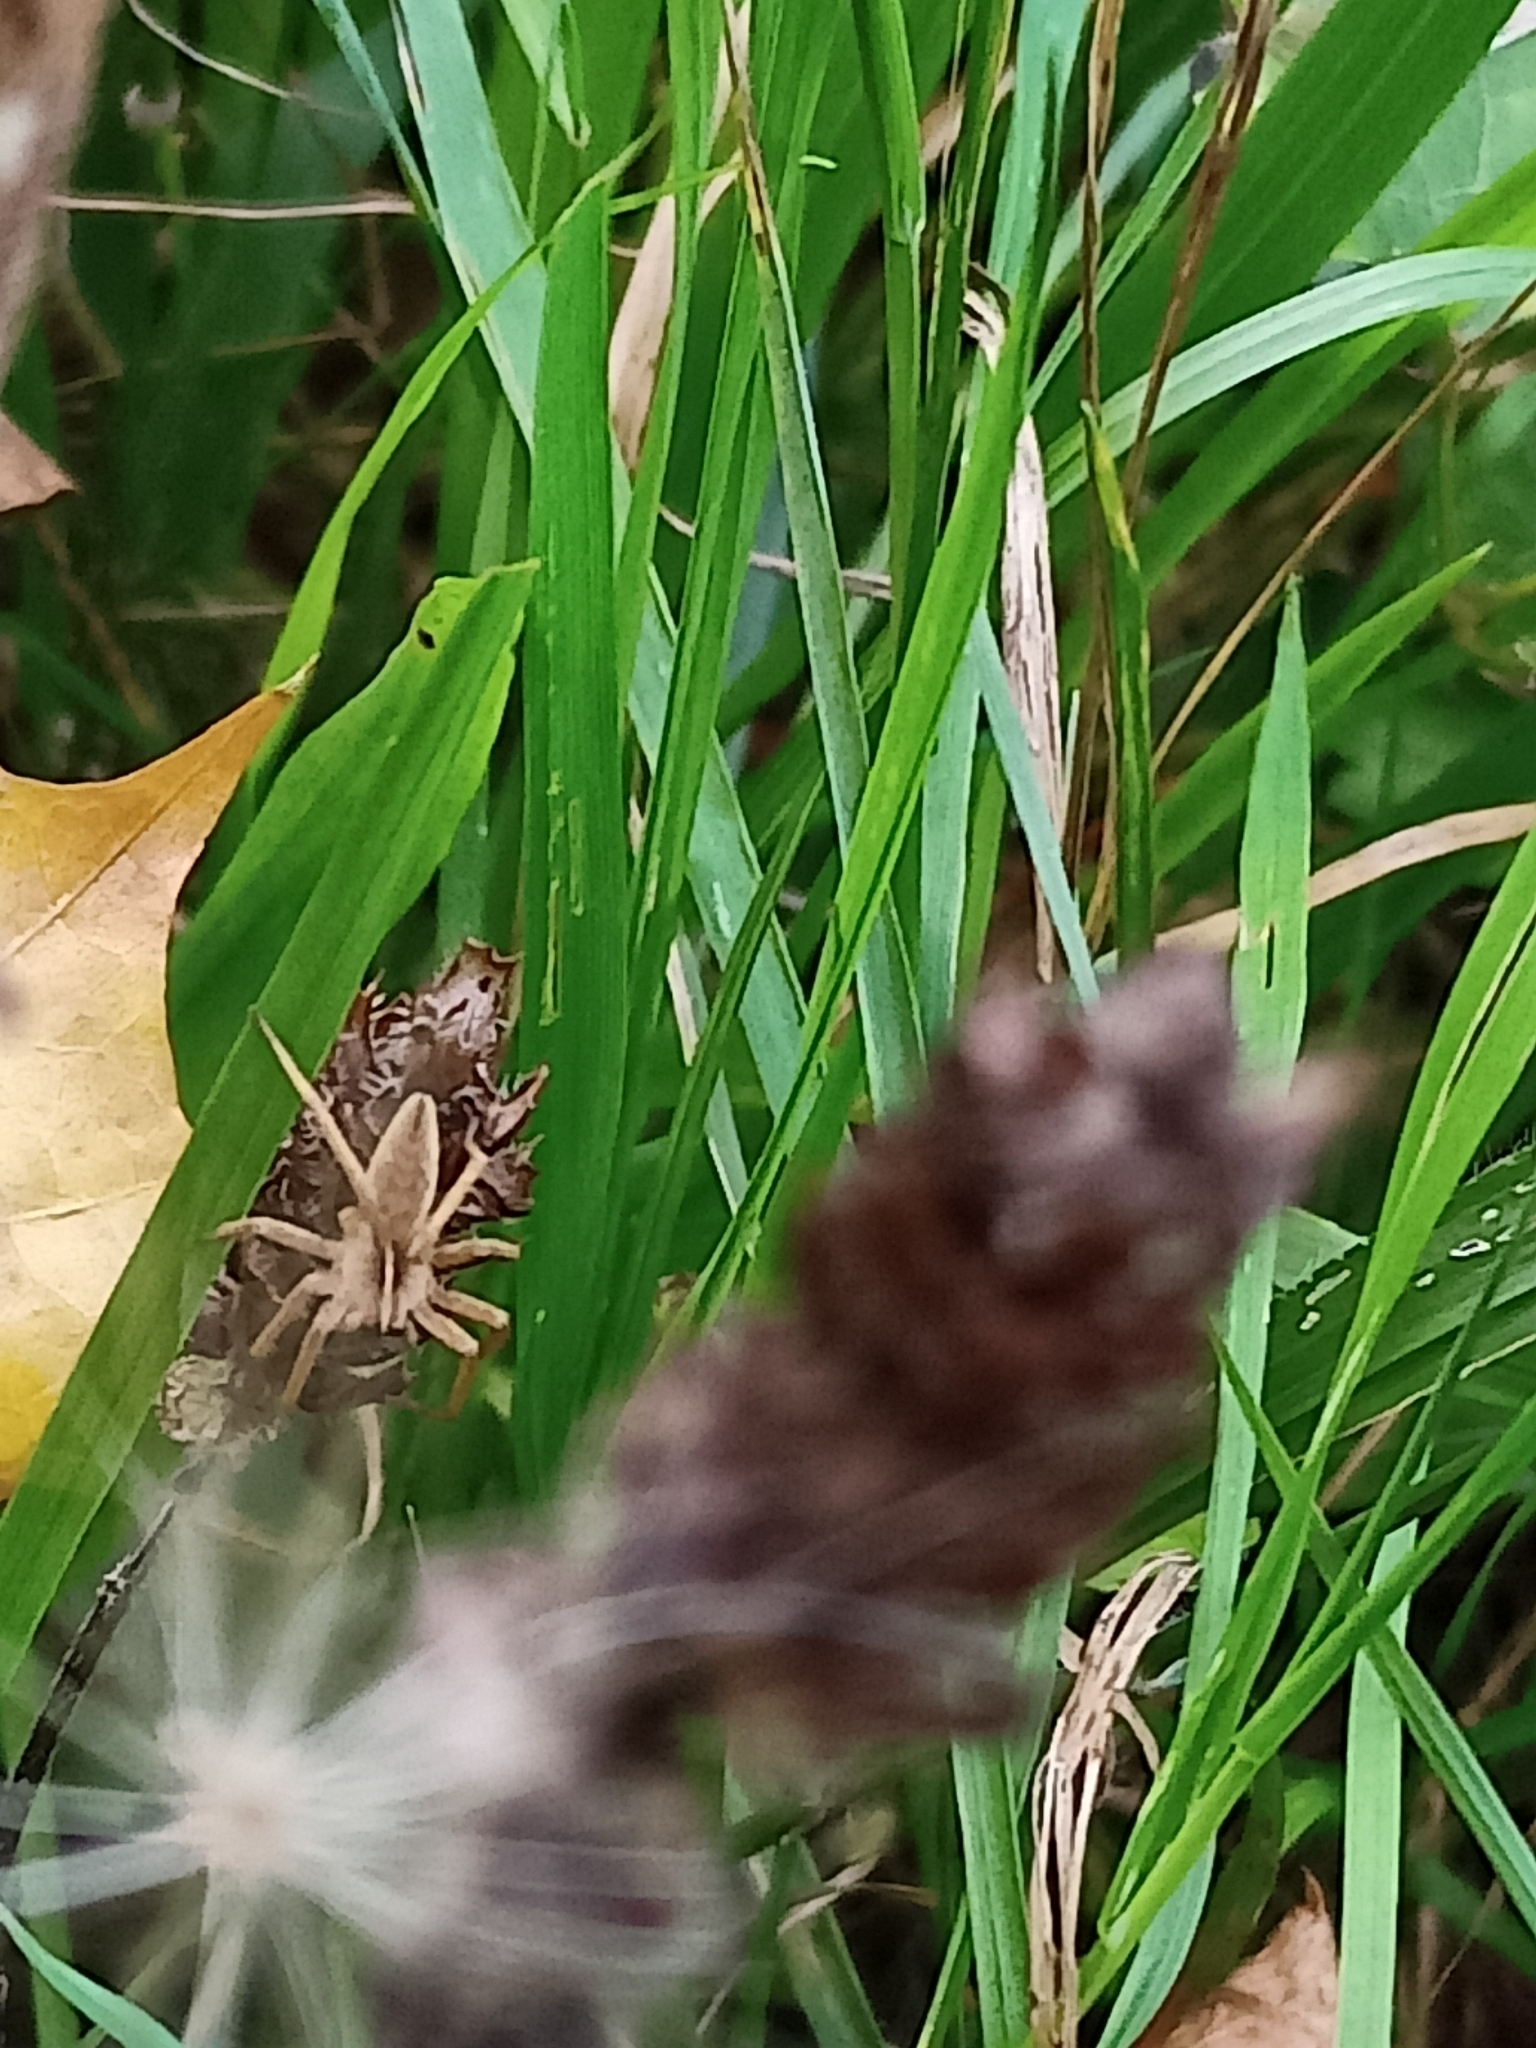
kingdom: Animalia
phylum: Arthropoda
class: Arachnida
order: Araneae
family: Pisauridae
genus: Pisaura
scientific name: Pisaura mirabilis
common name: Tent spider
